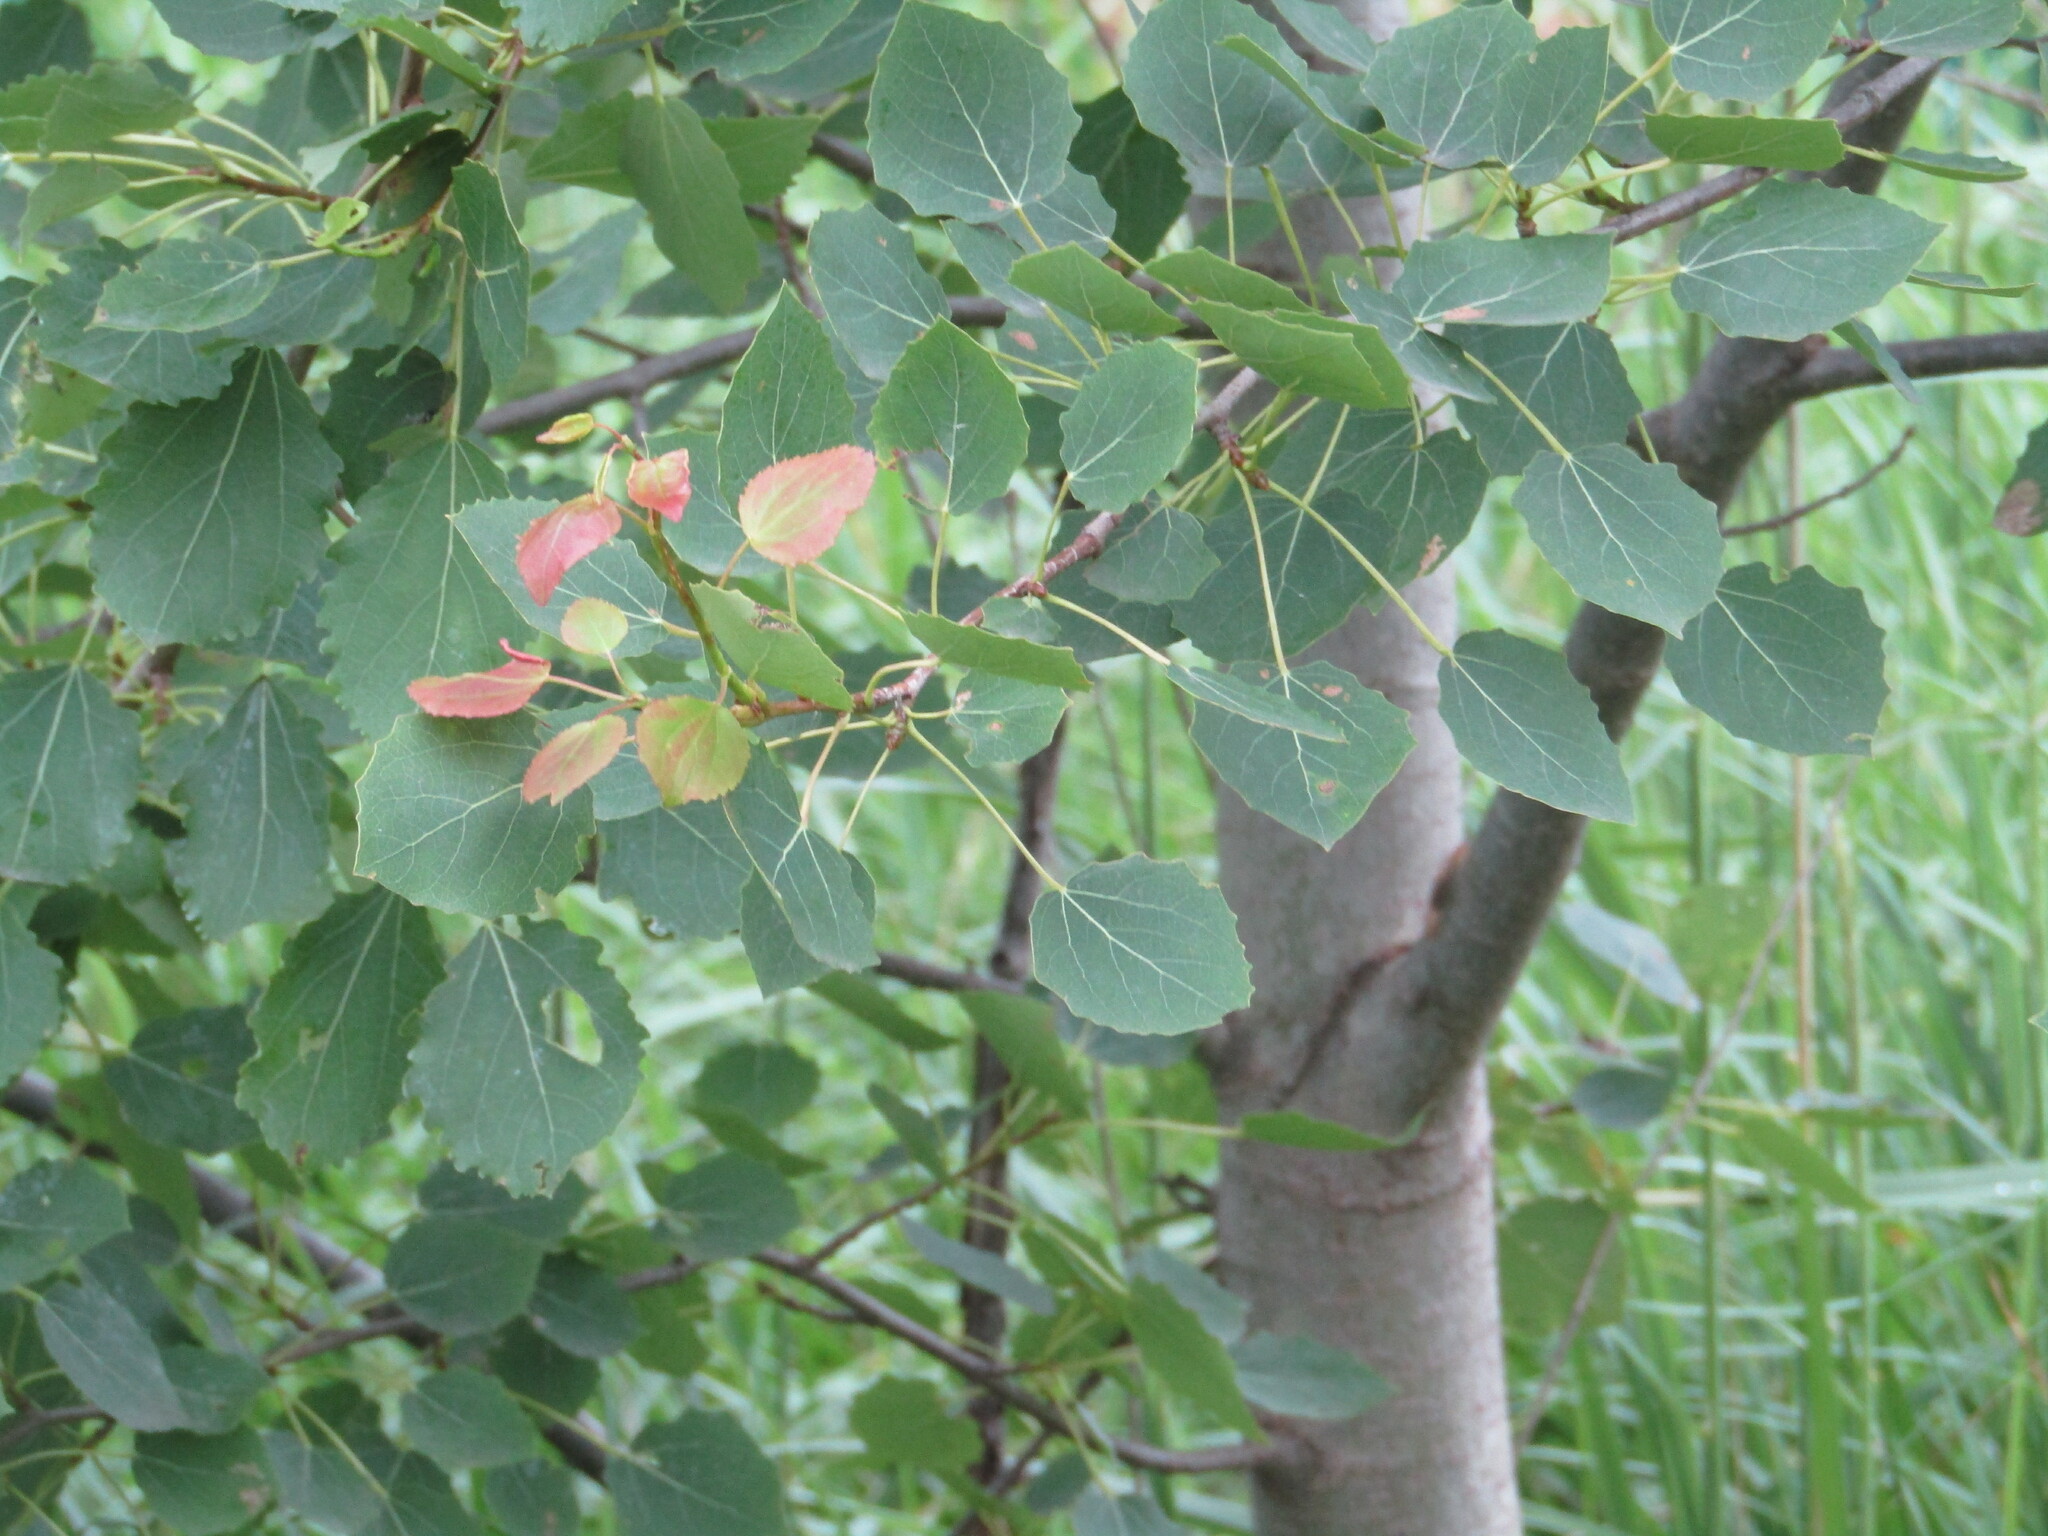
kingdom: Plantae
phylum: Tracheophyta
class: Magnoliopsida
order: Malpighiales
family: Salicaceae
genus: Populus
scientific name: Populus tremula
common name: European aspen
